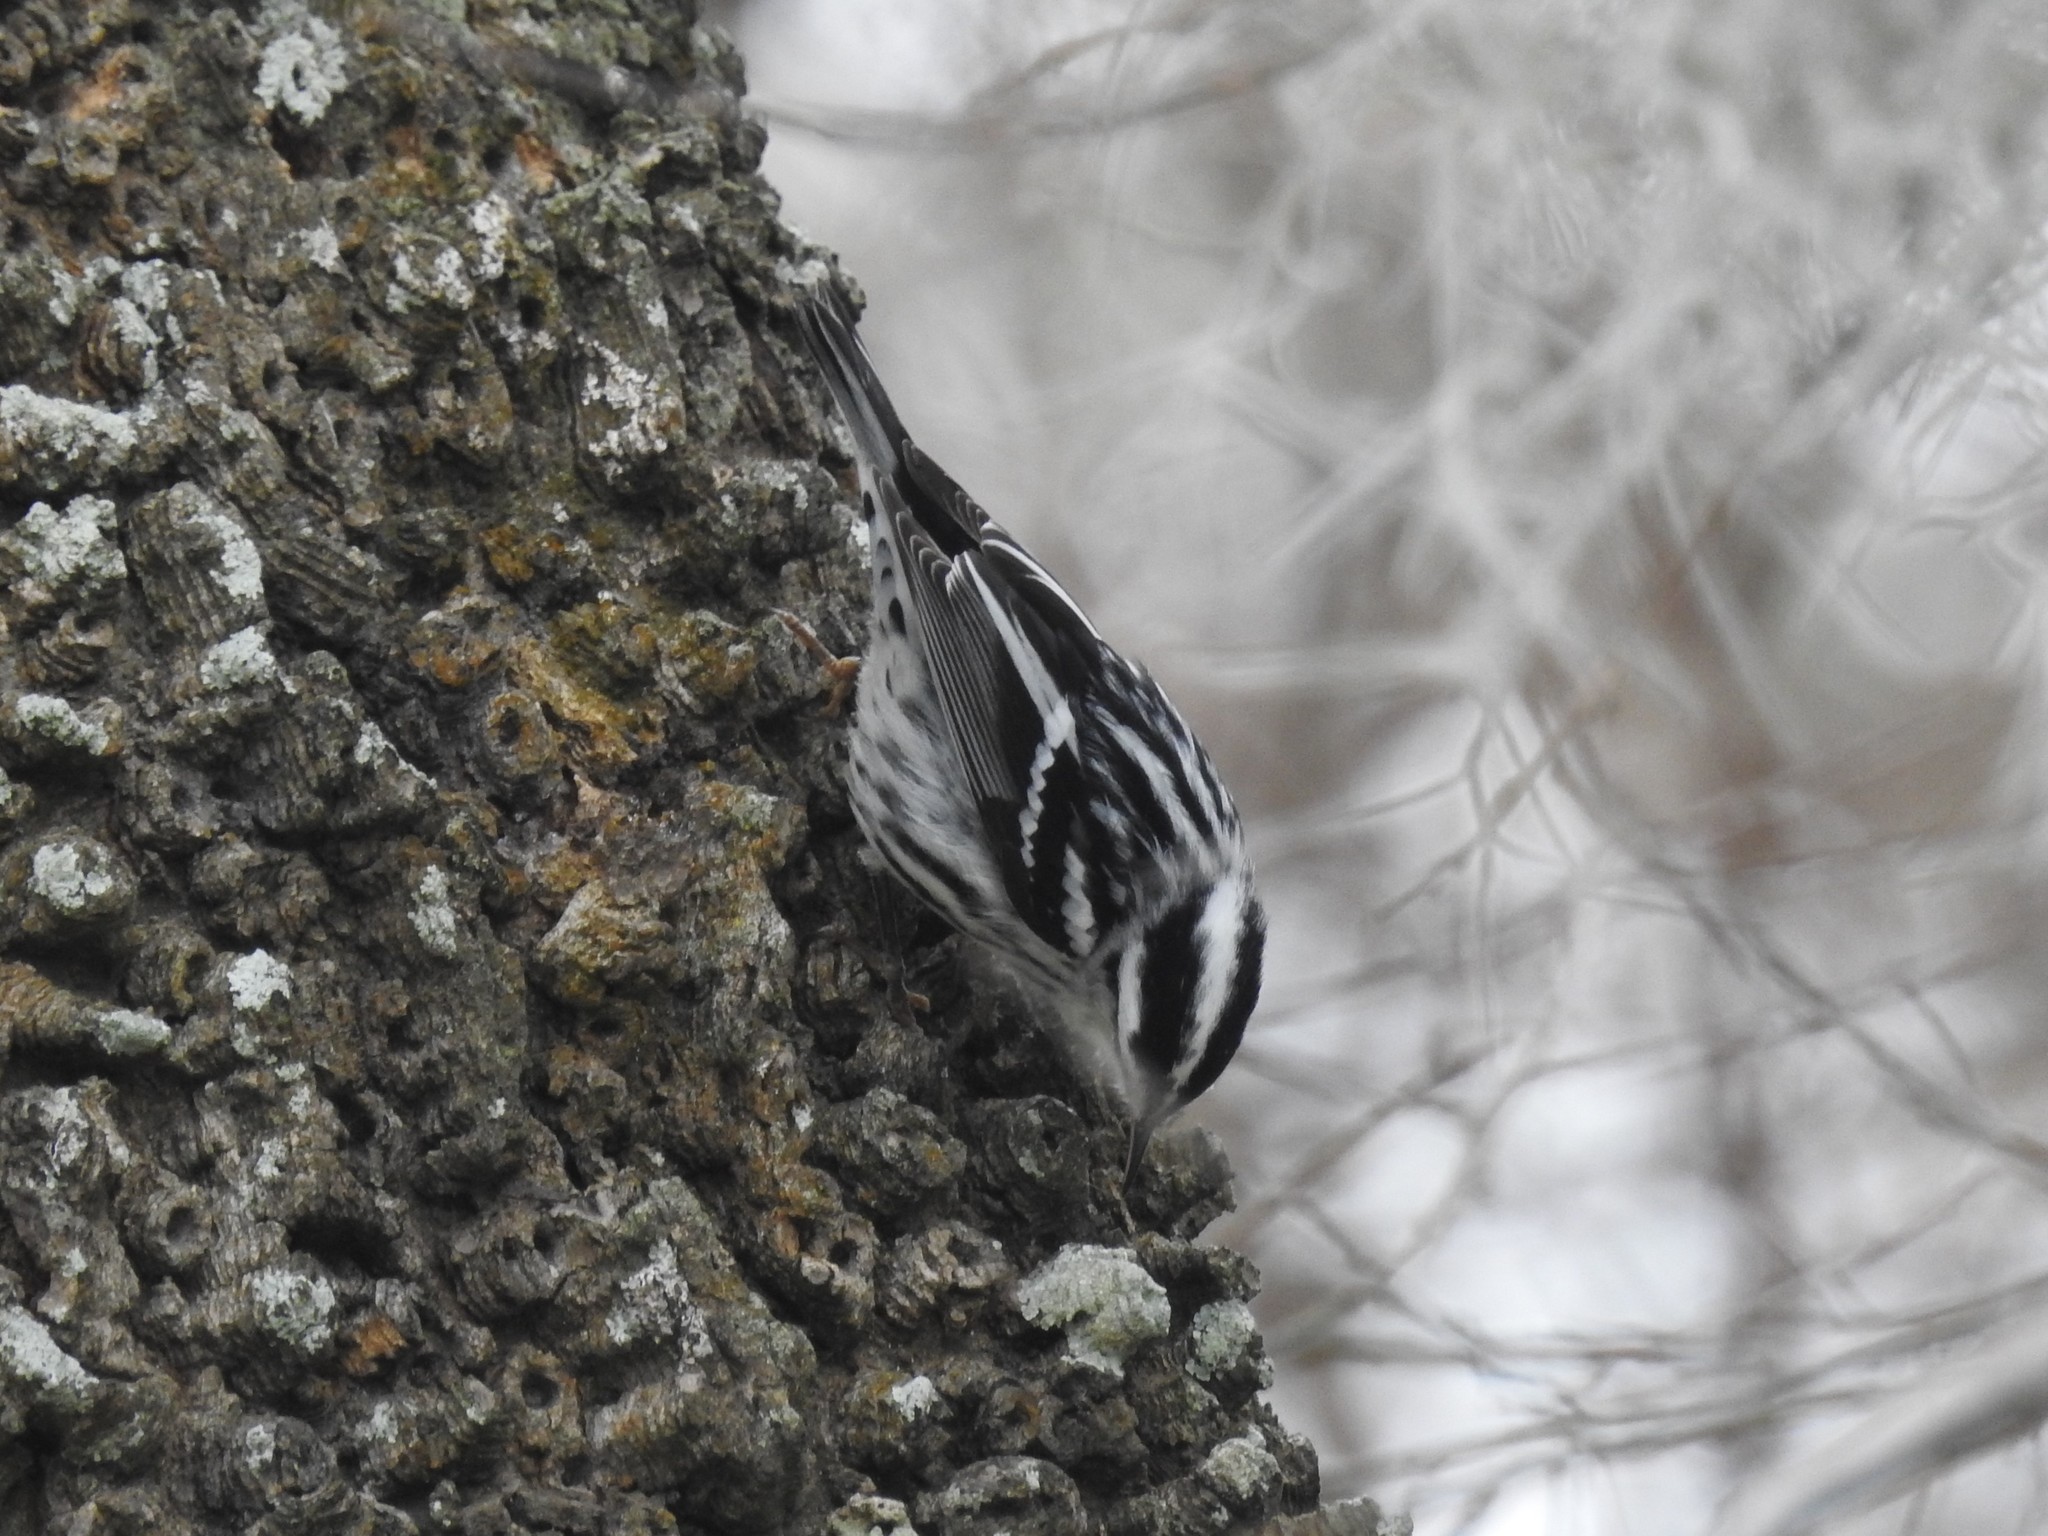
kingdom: Animalia
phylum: Chordata
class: Aves
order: Passeriformes
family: Parulidae
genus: Mniotilta
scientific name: Mniotilta varia
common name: Black-and-white warbler
